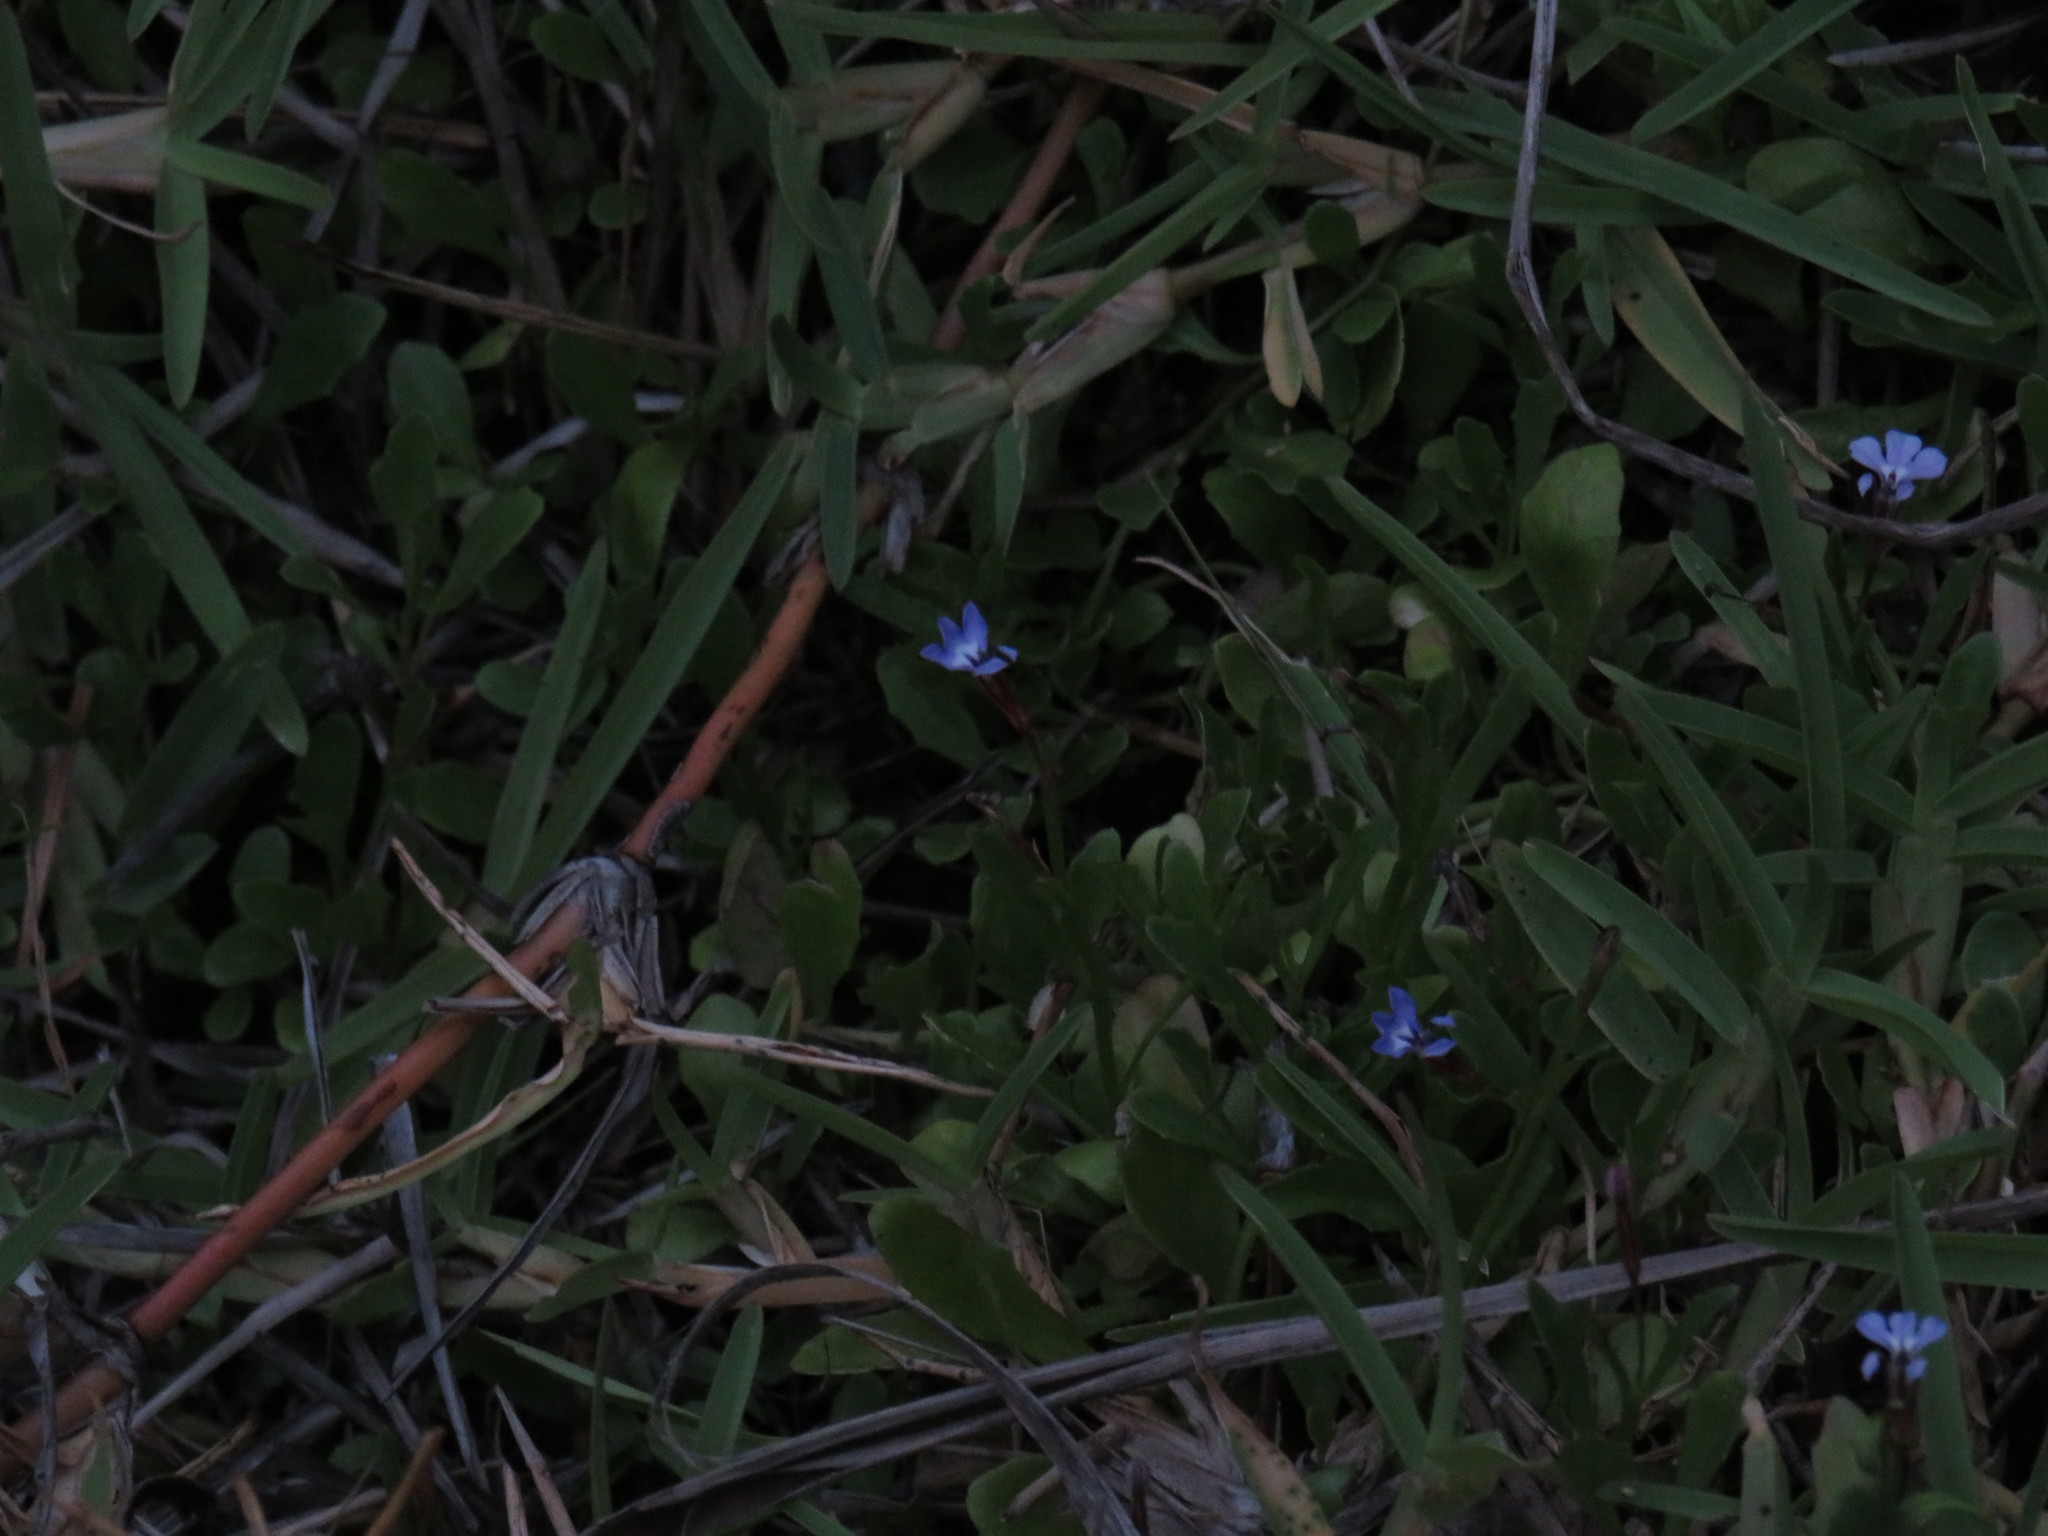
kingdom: Plantae
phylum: Tracheophyta
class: Magnoliopsida
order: Asterales
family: Campanulaceae
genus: Lobelia
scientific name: Lobelia anceps
